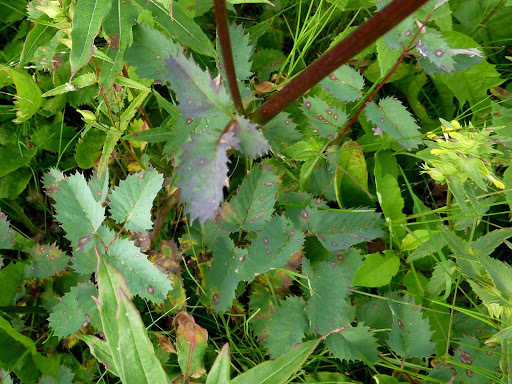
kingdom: Plantae
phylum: Tracheophyta
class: Magnoliopsida
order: Rosales
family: Rosaceae
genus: Sanguisorba
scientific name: Sanguisorba officinalis
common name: Great burnet
